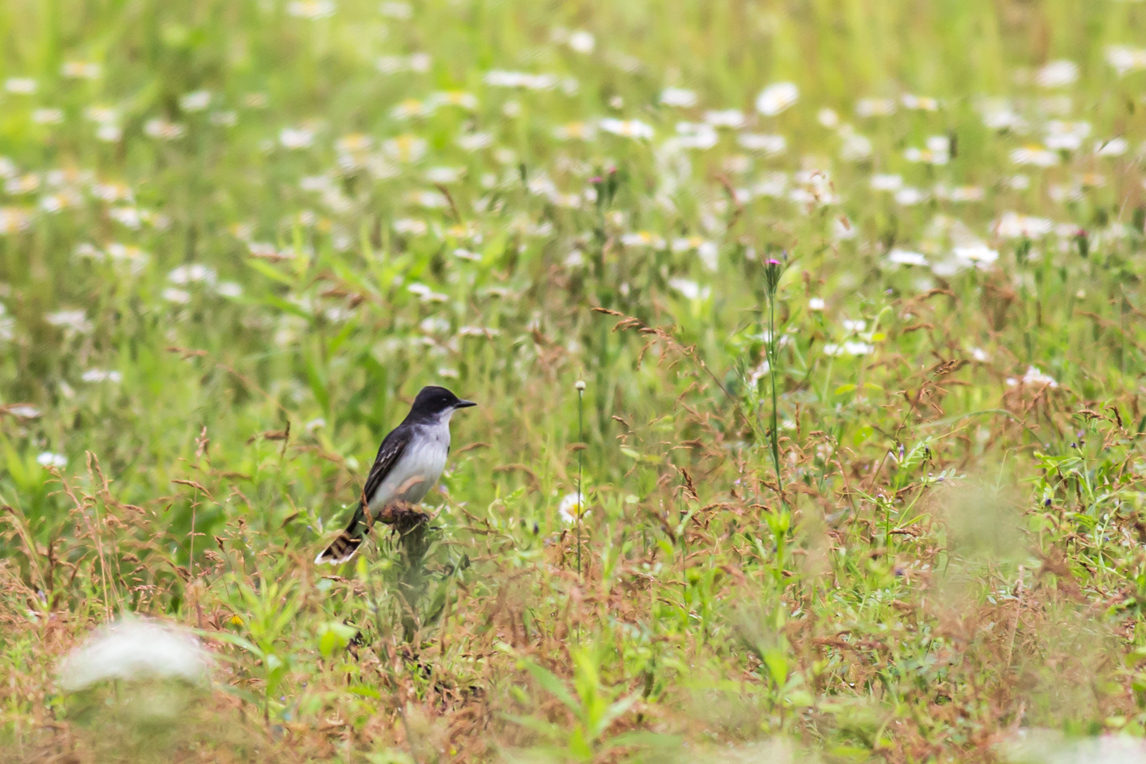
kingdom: Animalia
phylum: Chordata
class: Aves
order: Passeriformes
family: Tyrannidae
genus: Tyrannus
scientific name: Tyrannus tyrannus
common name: Eastern kingbird
